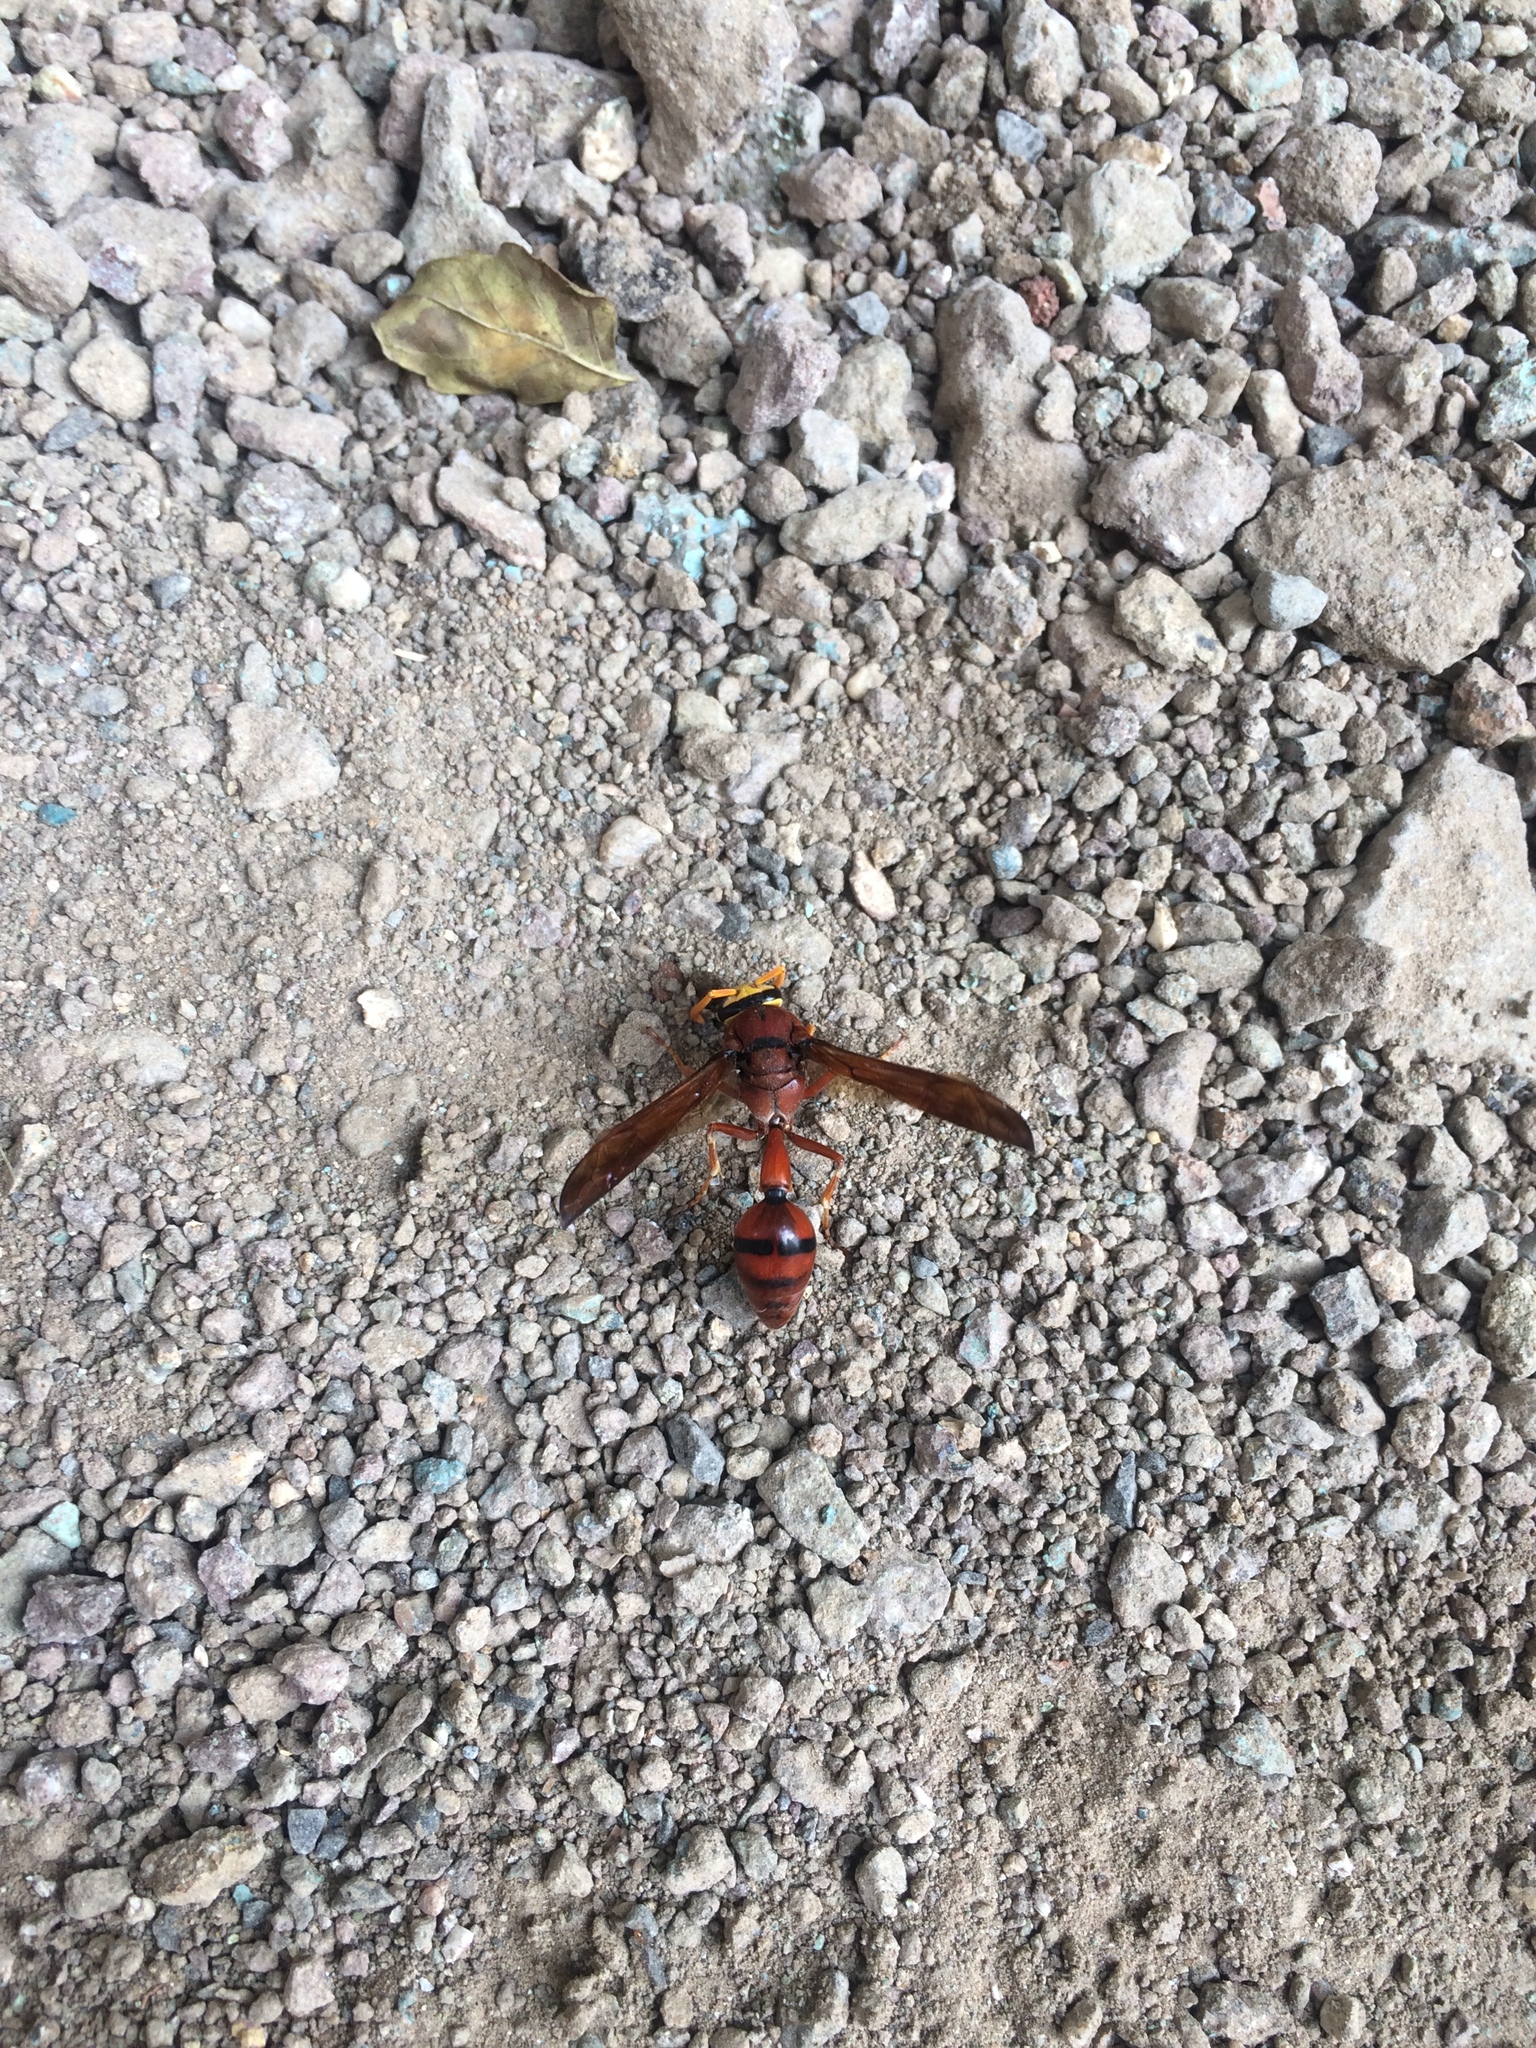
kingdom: Animalia
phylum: Arthropoda
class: Insecta
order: Hymenoptera
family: Eumenidae
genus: Delta
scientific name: Delta conoideum
